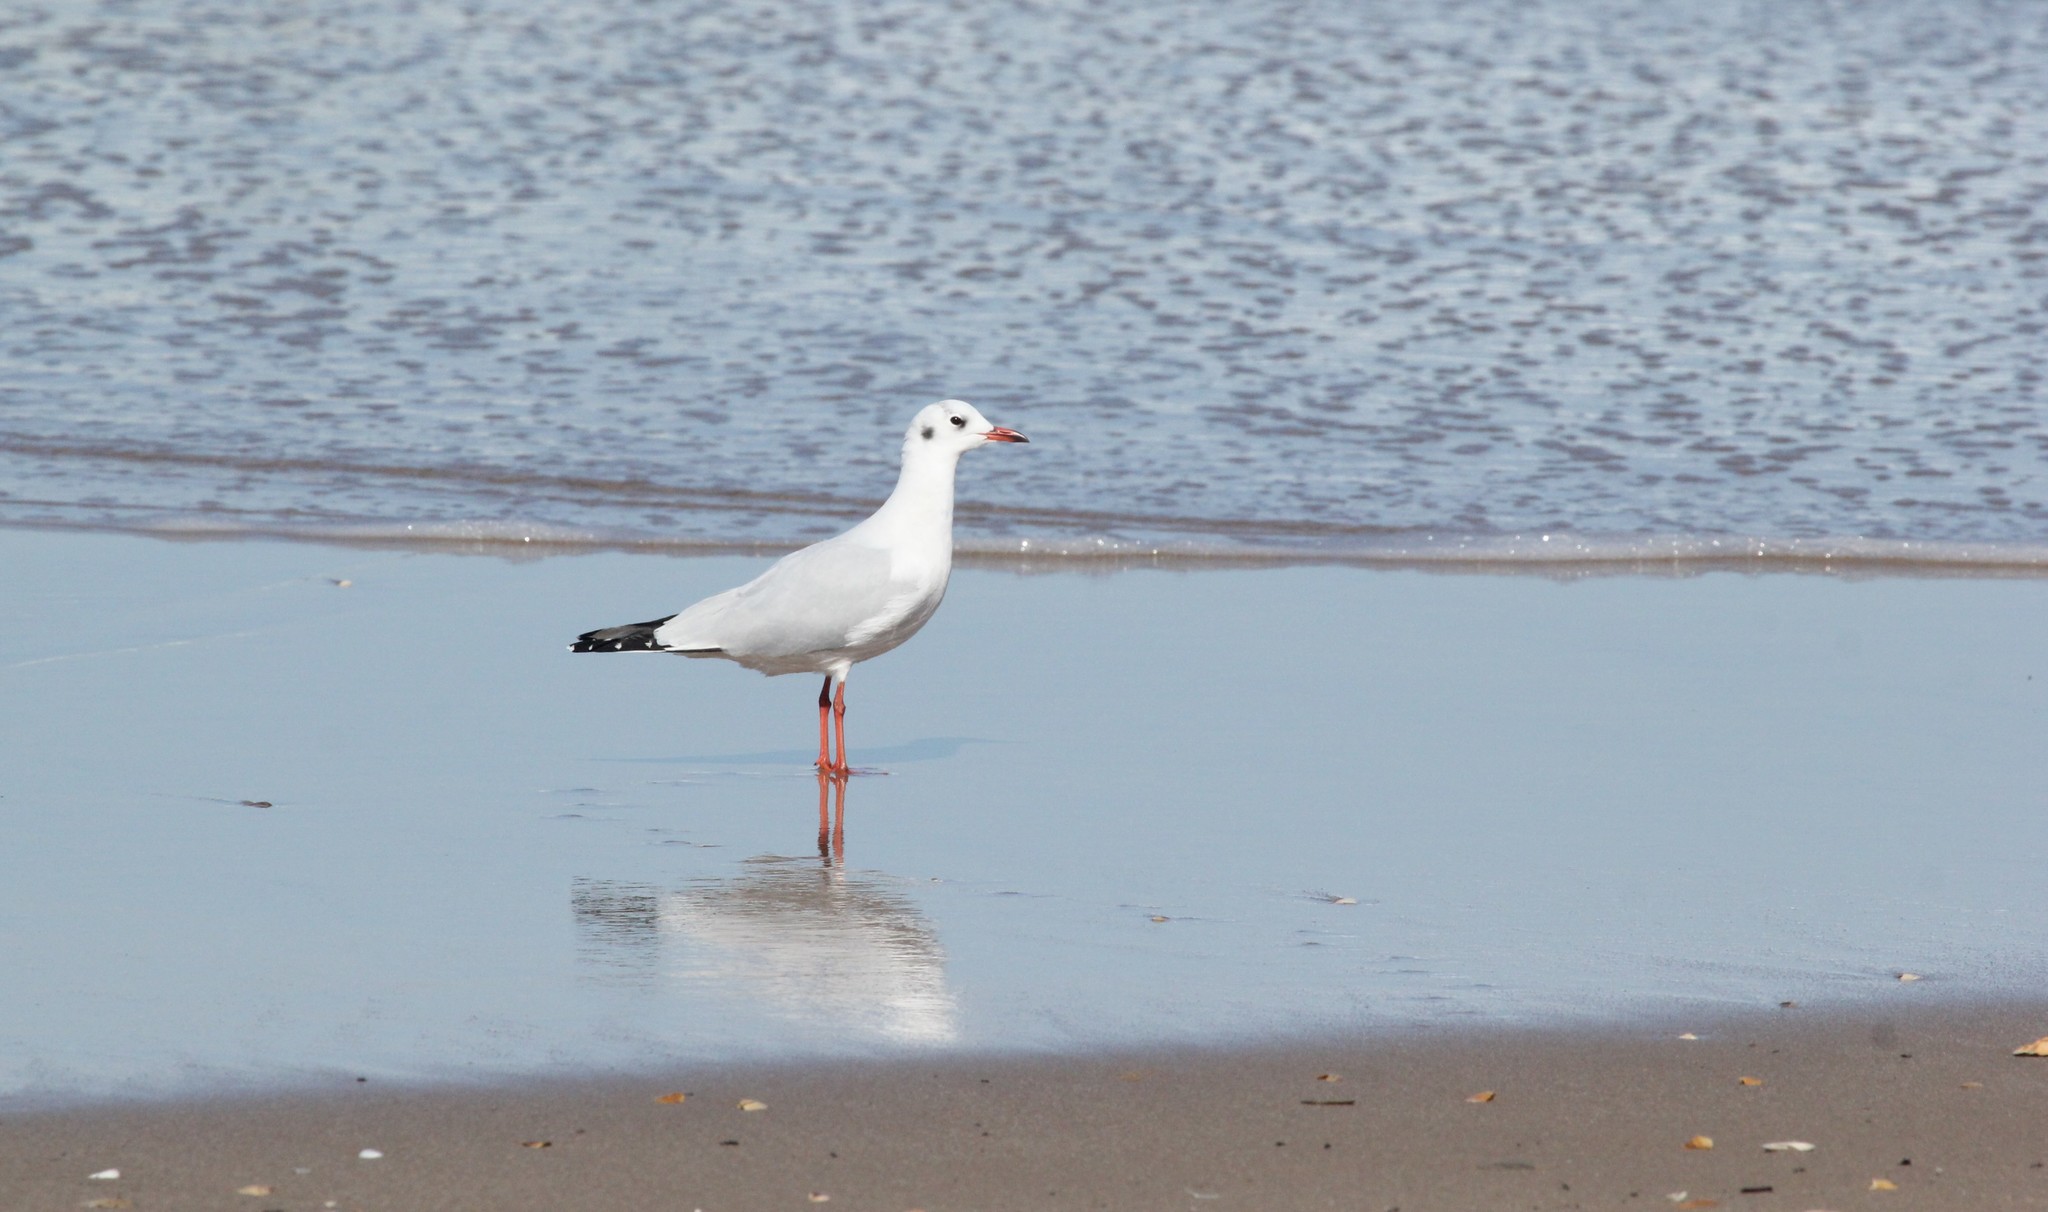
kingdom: Animalia
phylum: Chordata
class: Aves
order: Charadriiformes
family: Laridae
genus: Chroicocephalus
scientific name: Chroicocephalus maculipennis
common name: Brown-hooded gull
